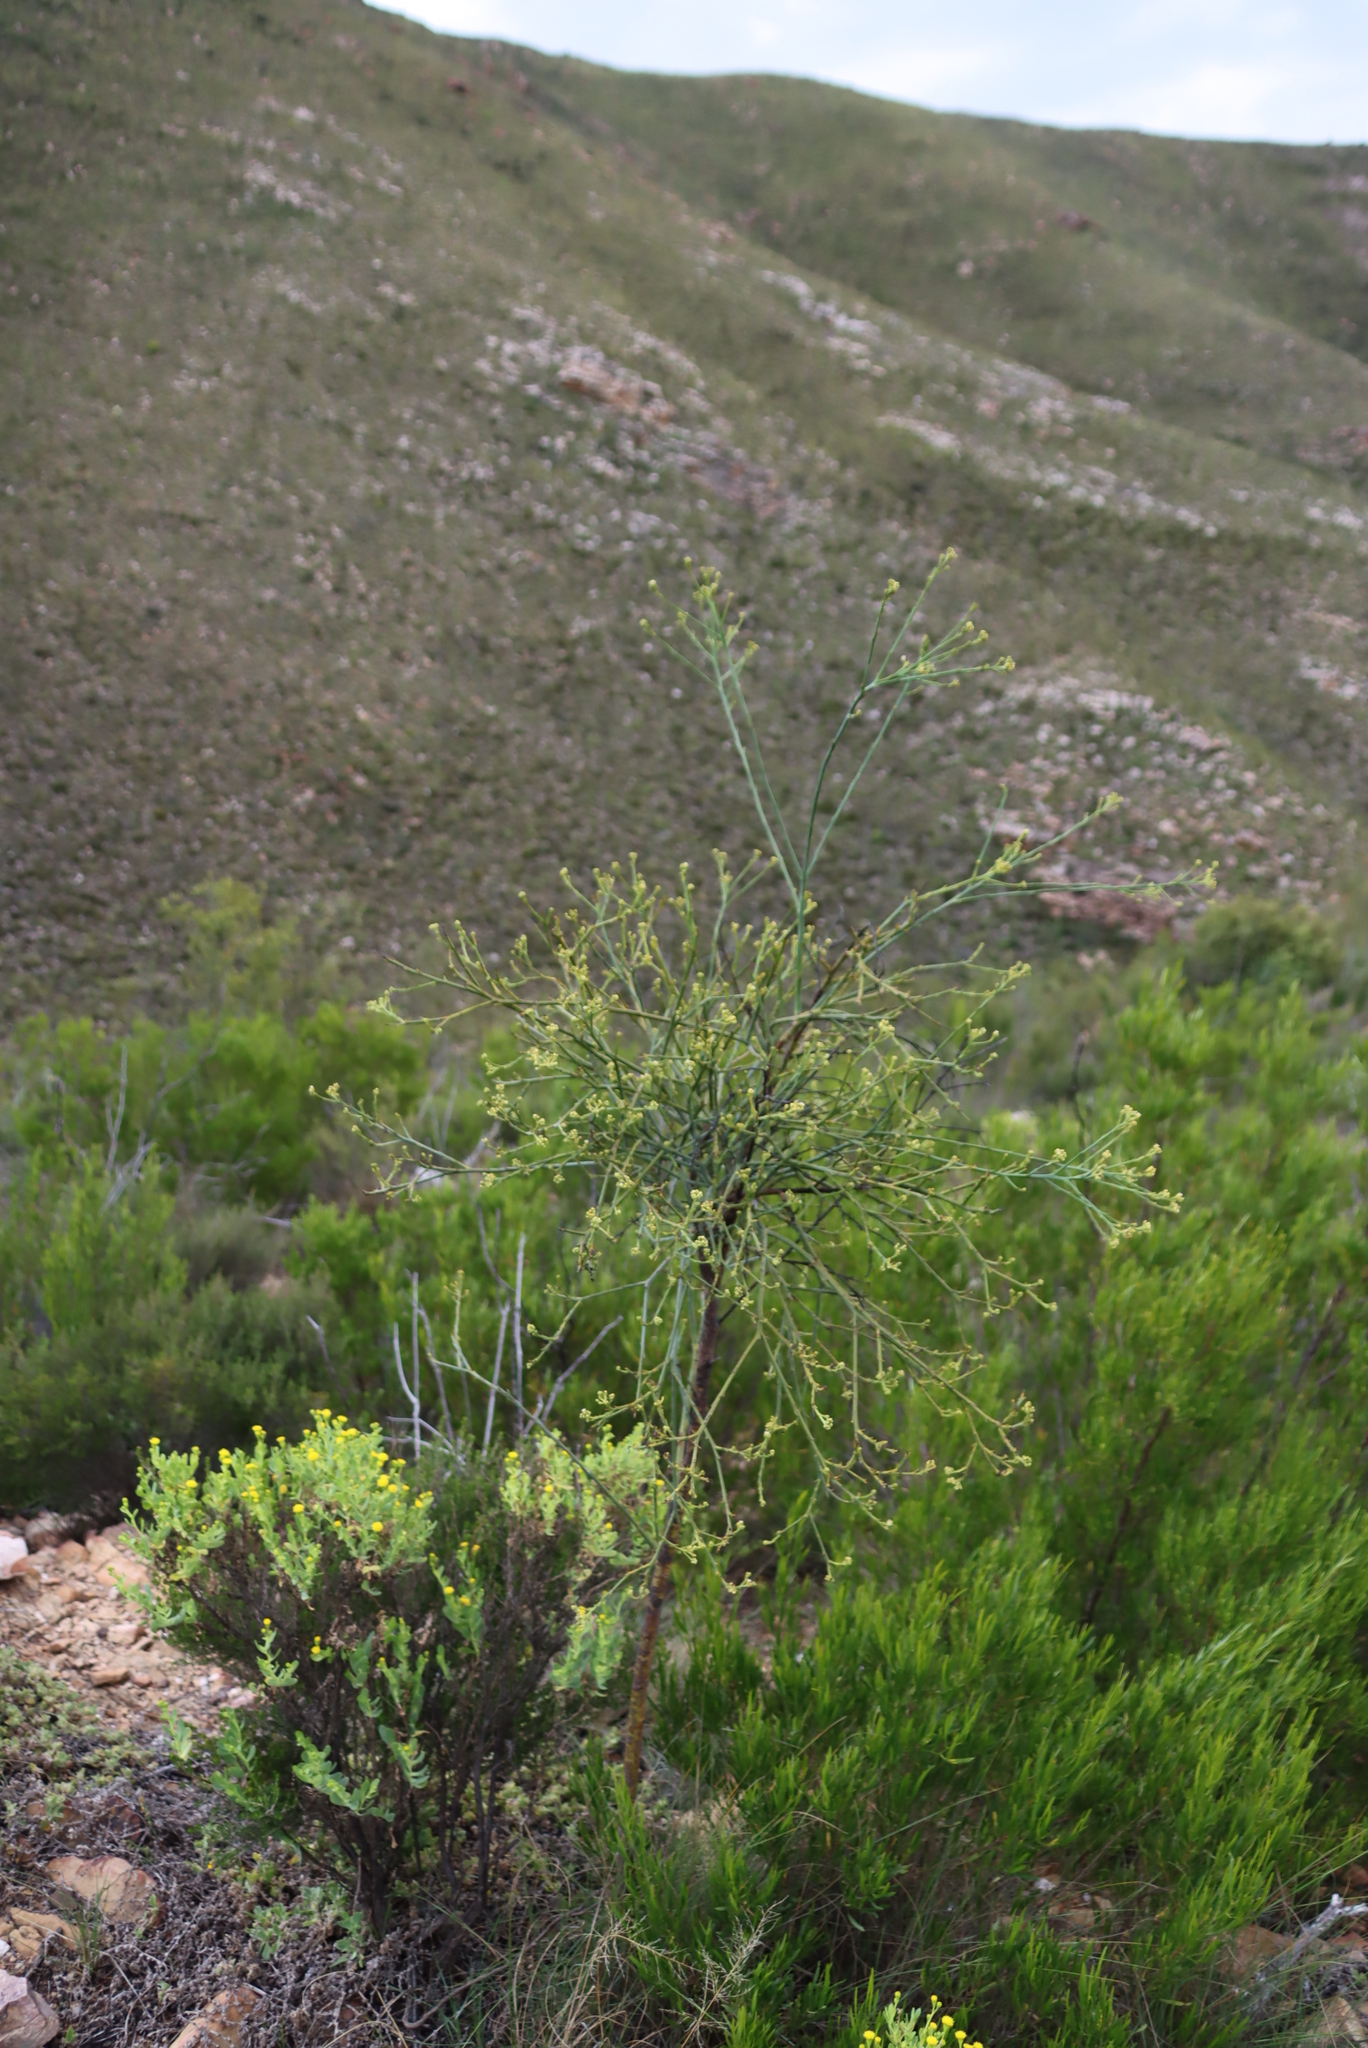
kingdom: Plantae
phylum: Tracheophyta
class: Magnoliopsida
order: Santalales
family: Thesiaceae
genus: Thesium
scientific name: Thesium strictum
